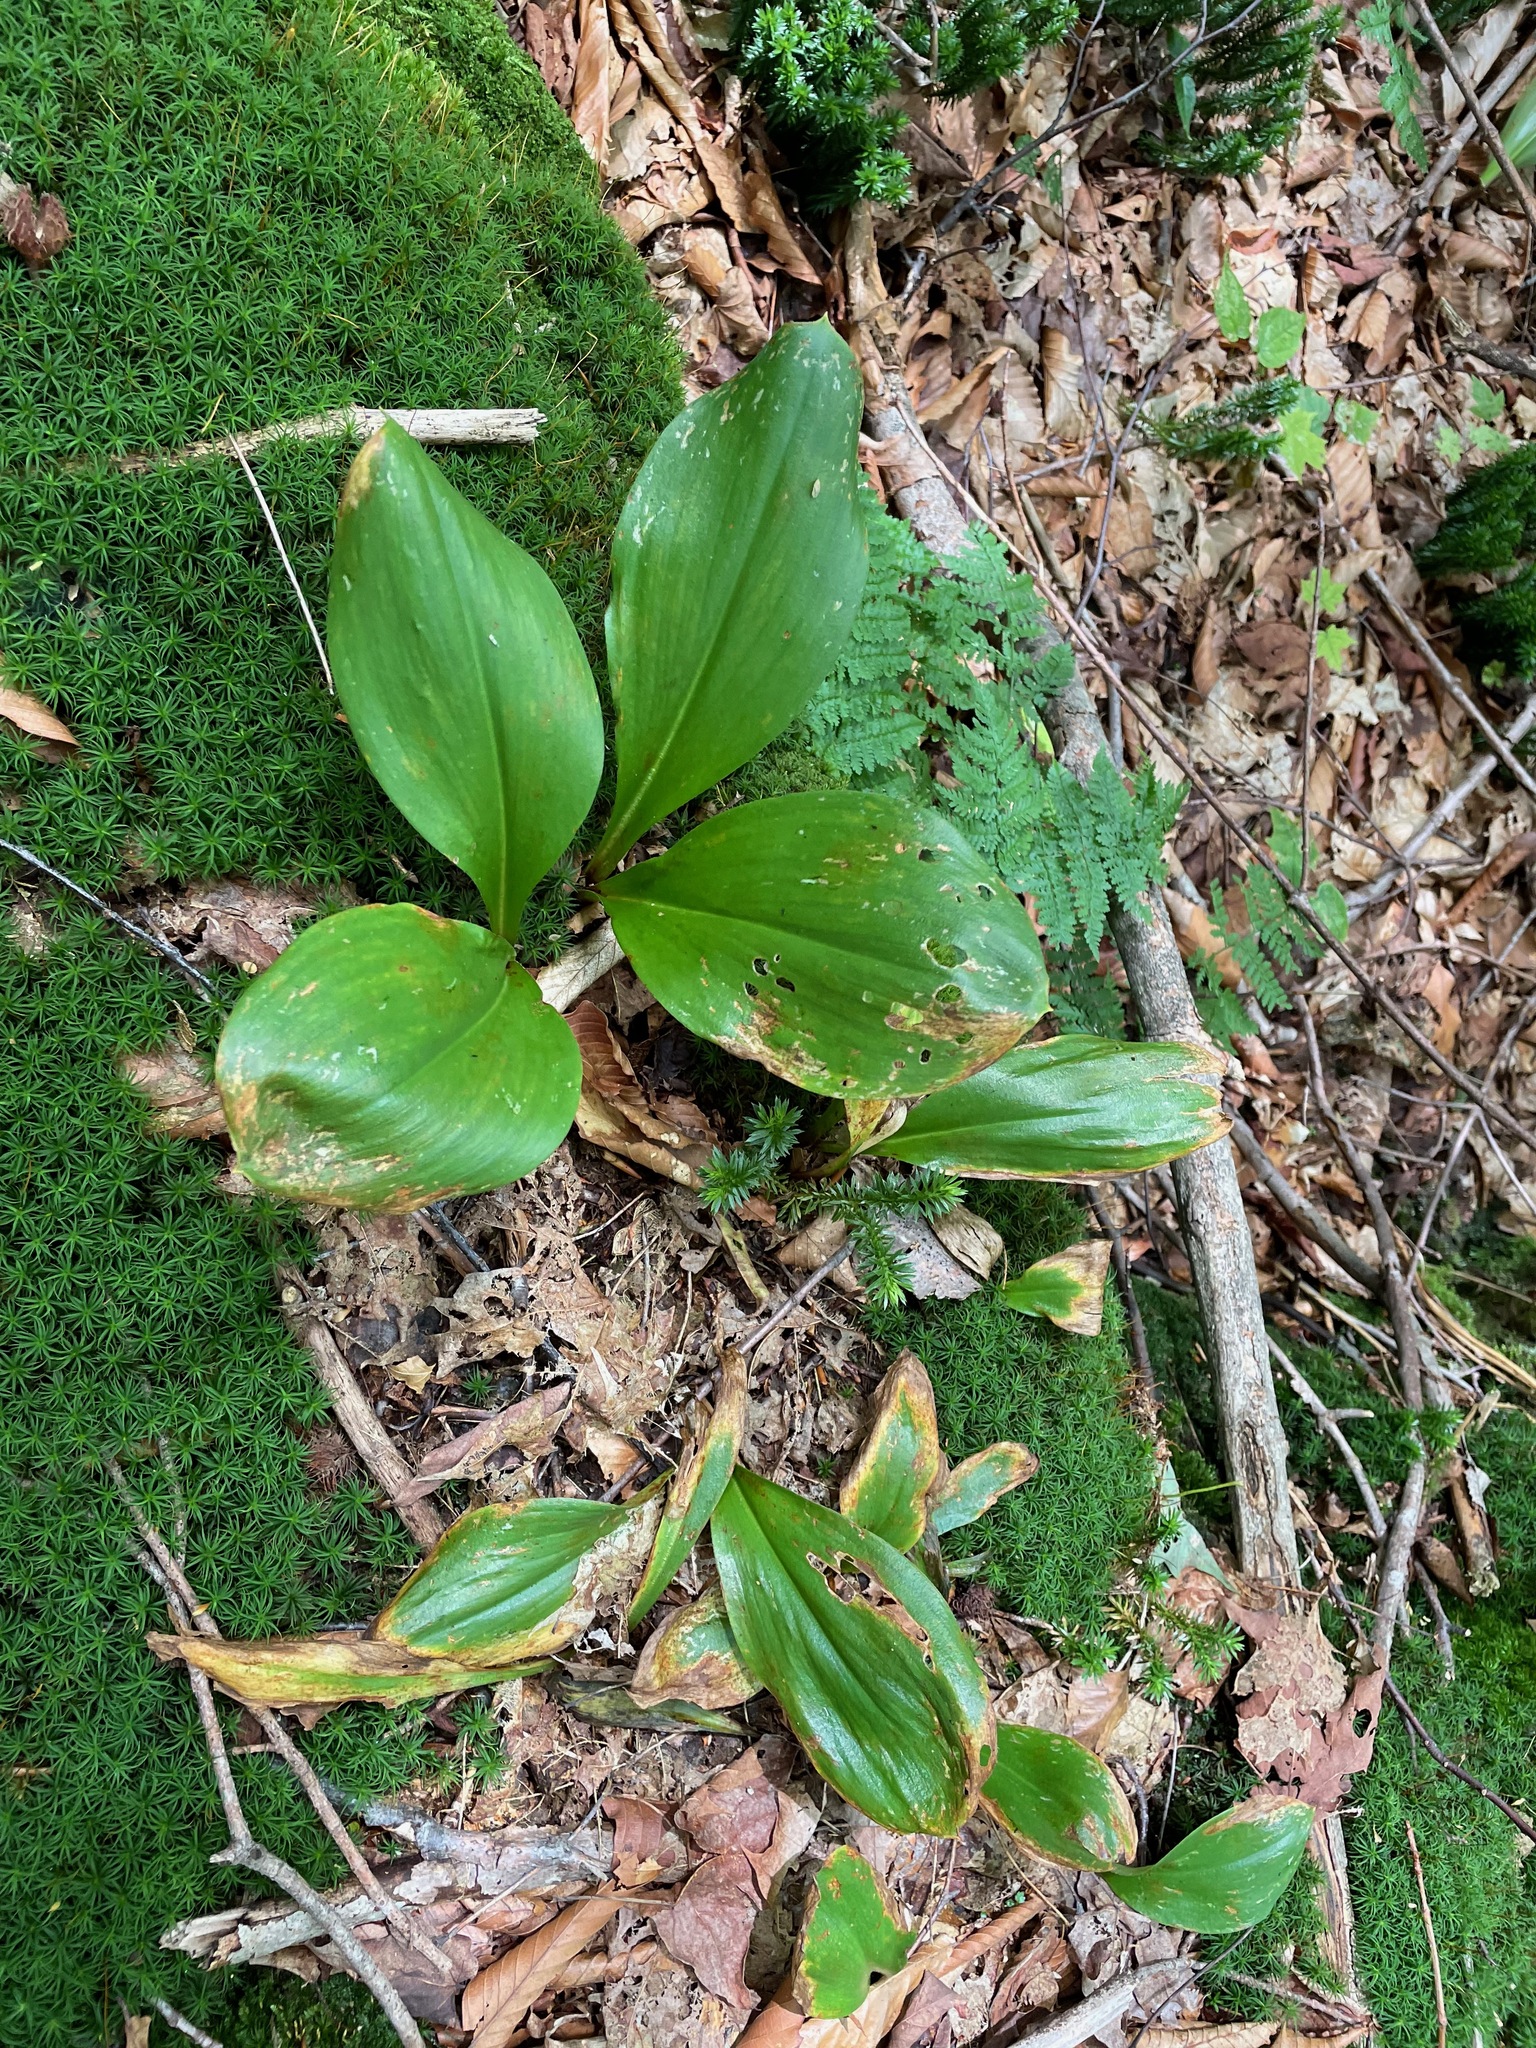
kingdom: Plantae
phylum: Tracheophyta
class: Liliopsida
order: Liliales
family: Liliaceae
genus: Clintonia
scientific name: Clintonia borealis
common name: Yellow clintonia
